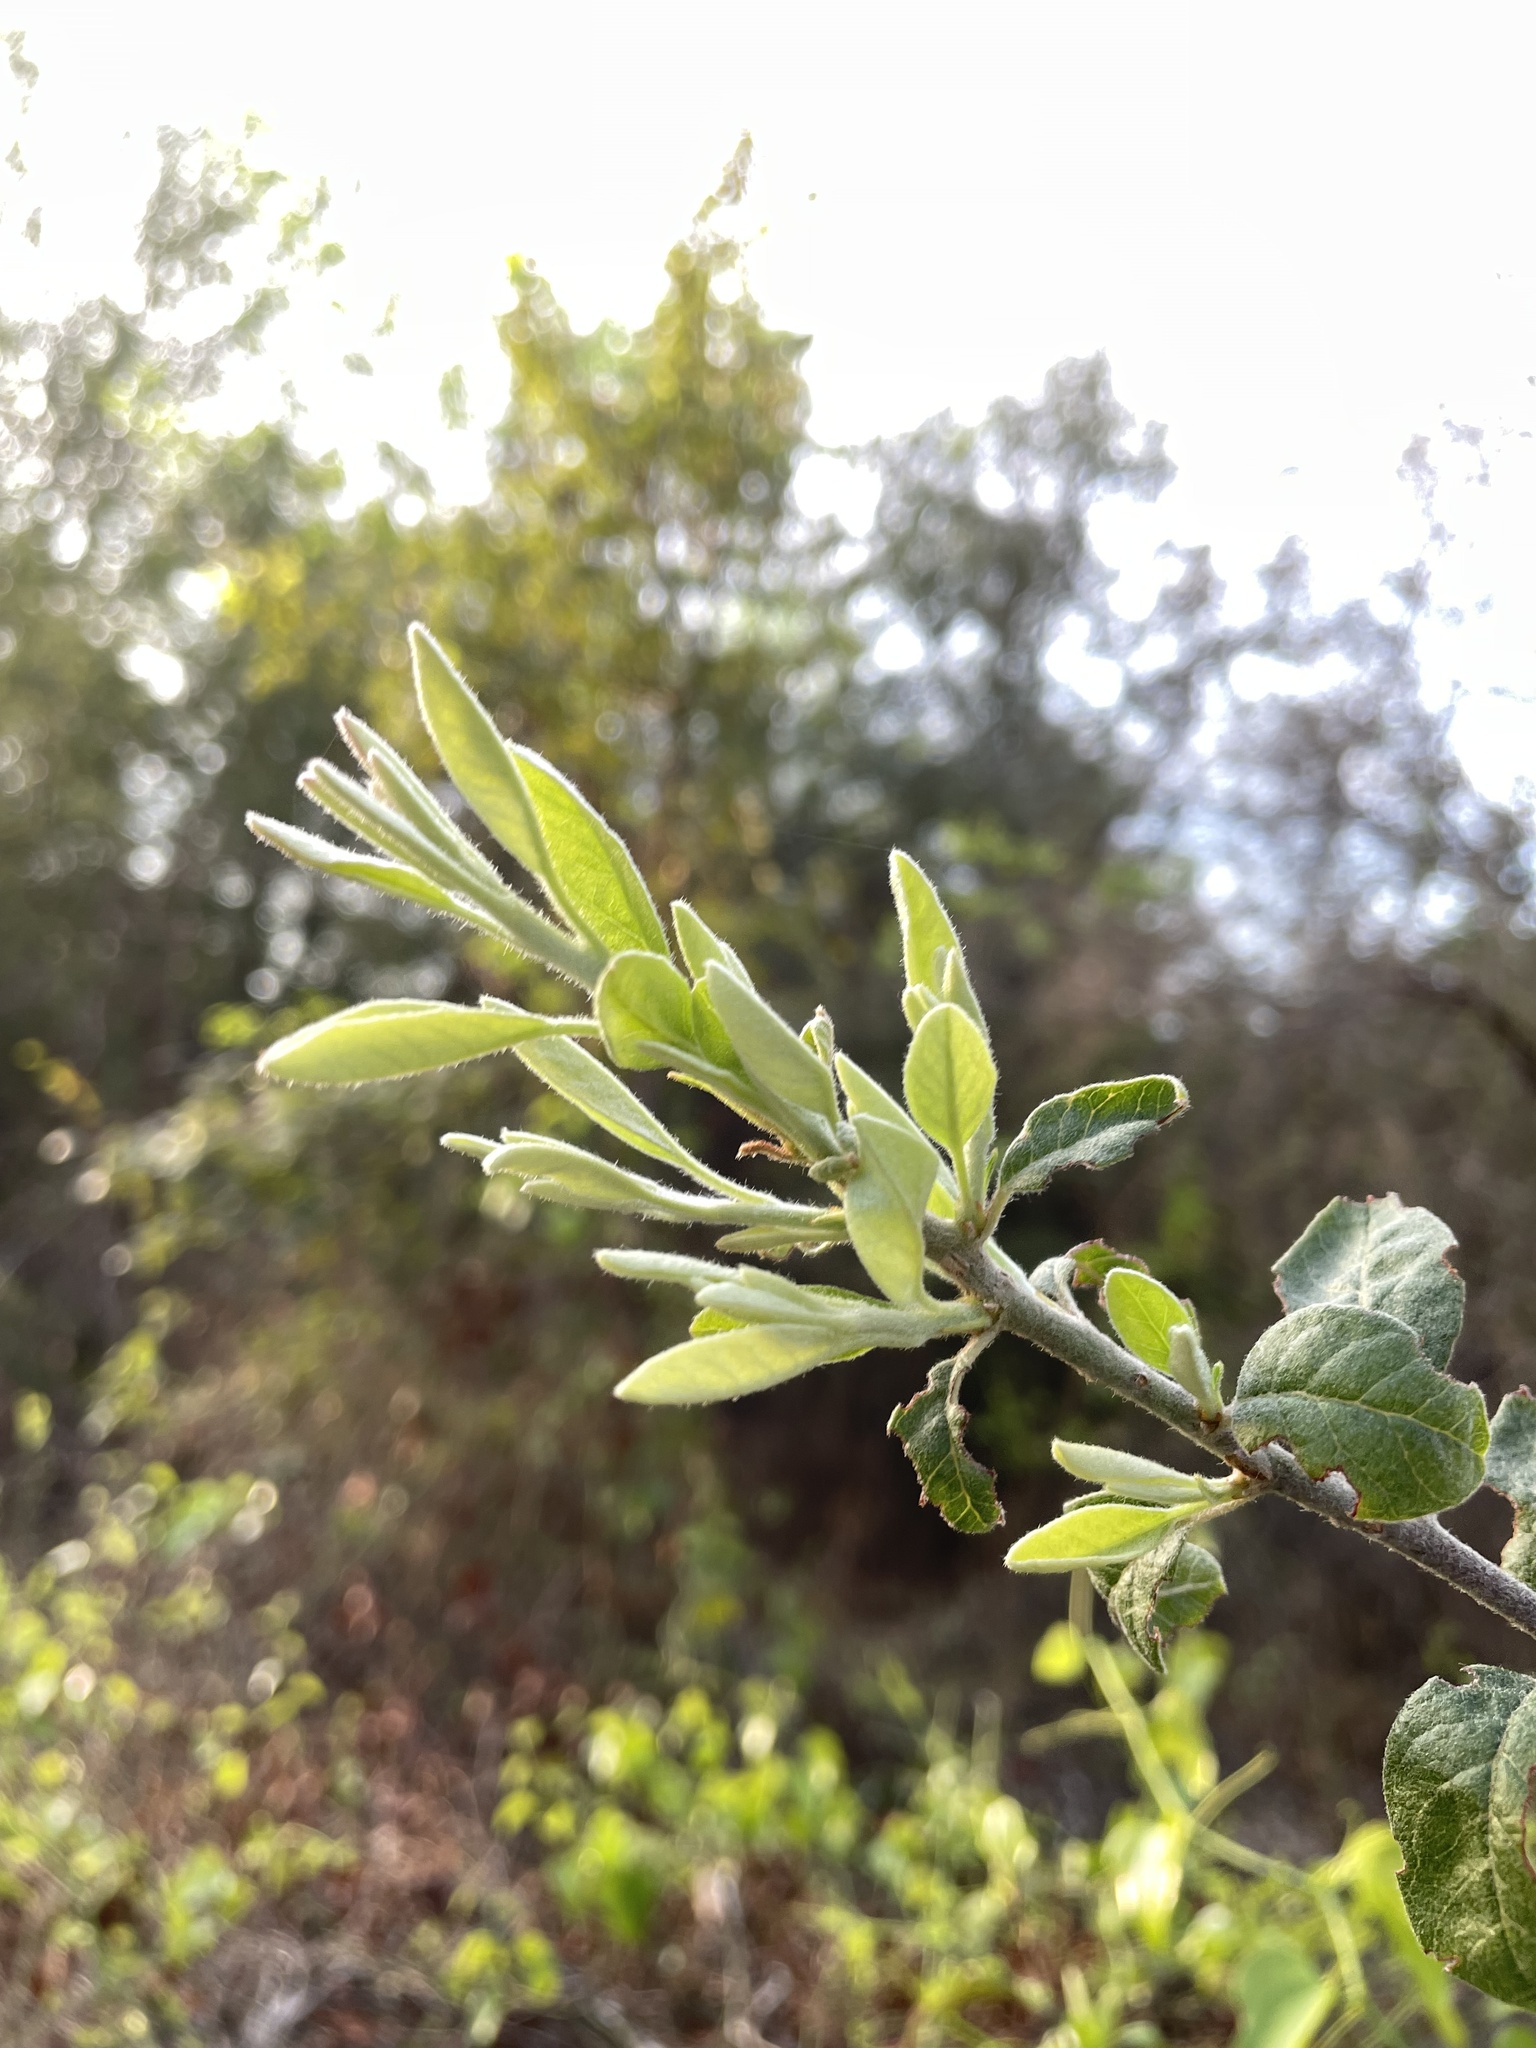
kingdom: Plantae
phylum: Tracheophyta
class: Magnoliopsida
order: Ericales
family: Sapotaceae
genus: Sideroxylon
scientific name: Sideroxylon lanuginosum
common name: Chittamwood
